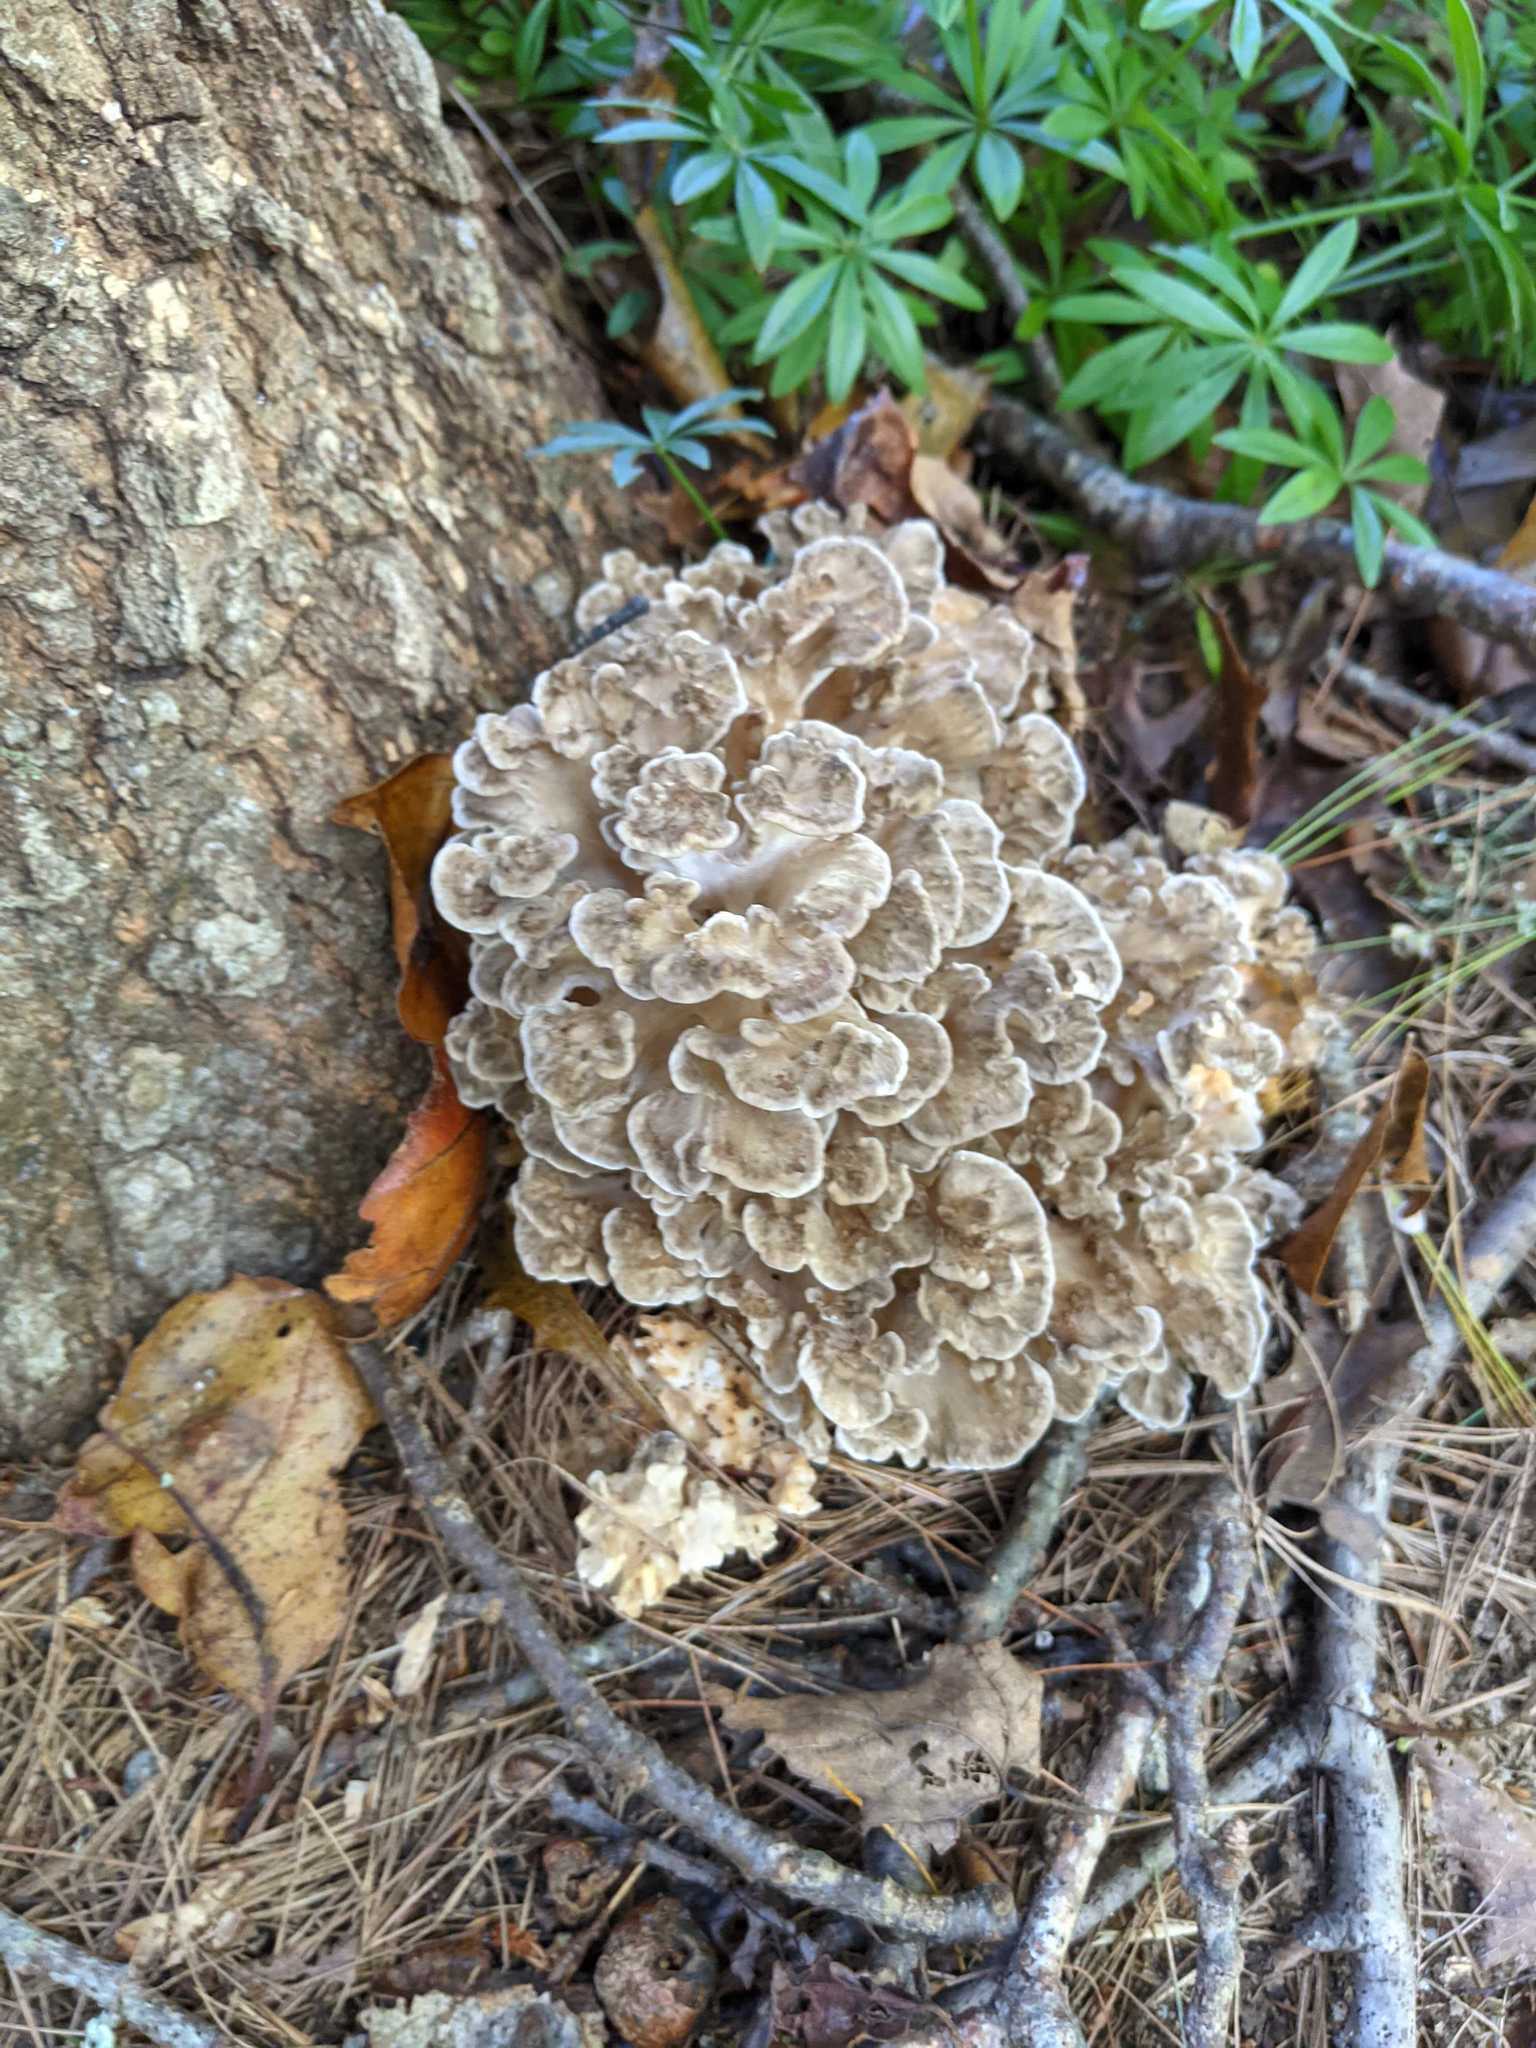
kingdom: Fungi
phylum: Basidiomycota
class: Agaricomycetes
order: Polyporales
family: Grifolaceae
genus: Grifola
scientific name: Grifola frondosa
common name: Hen of the woods
